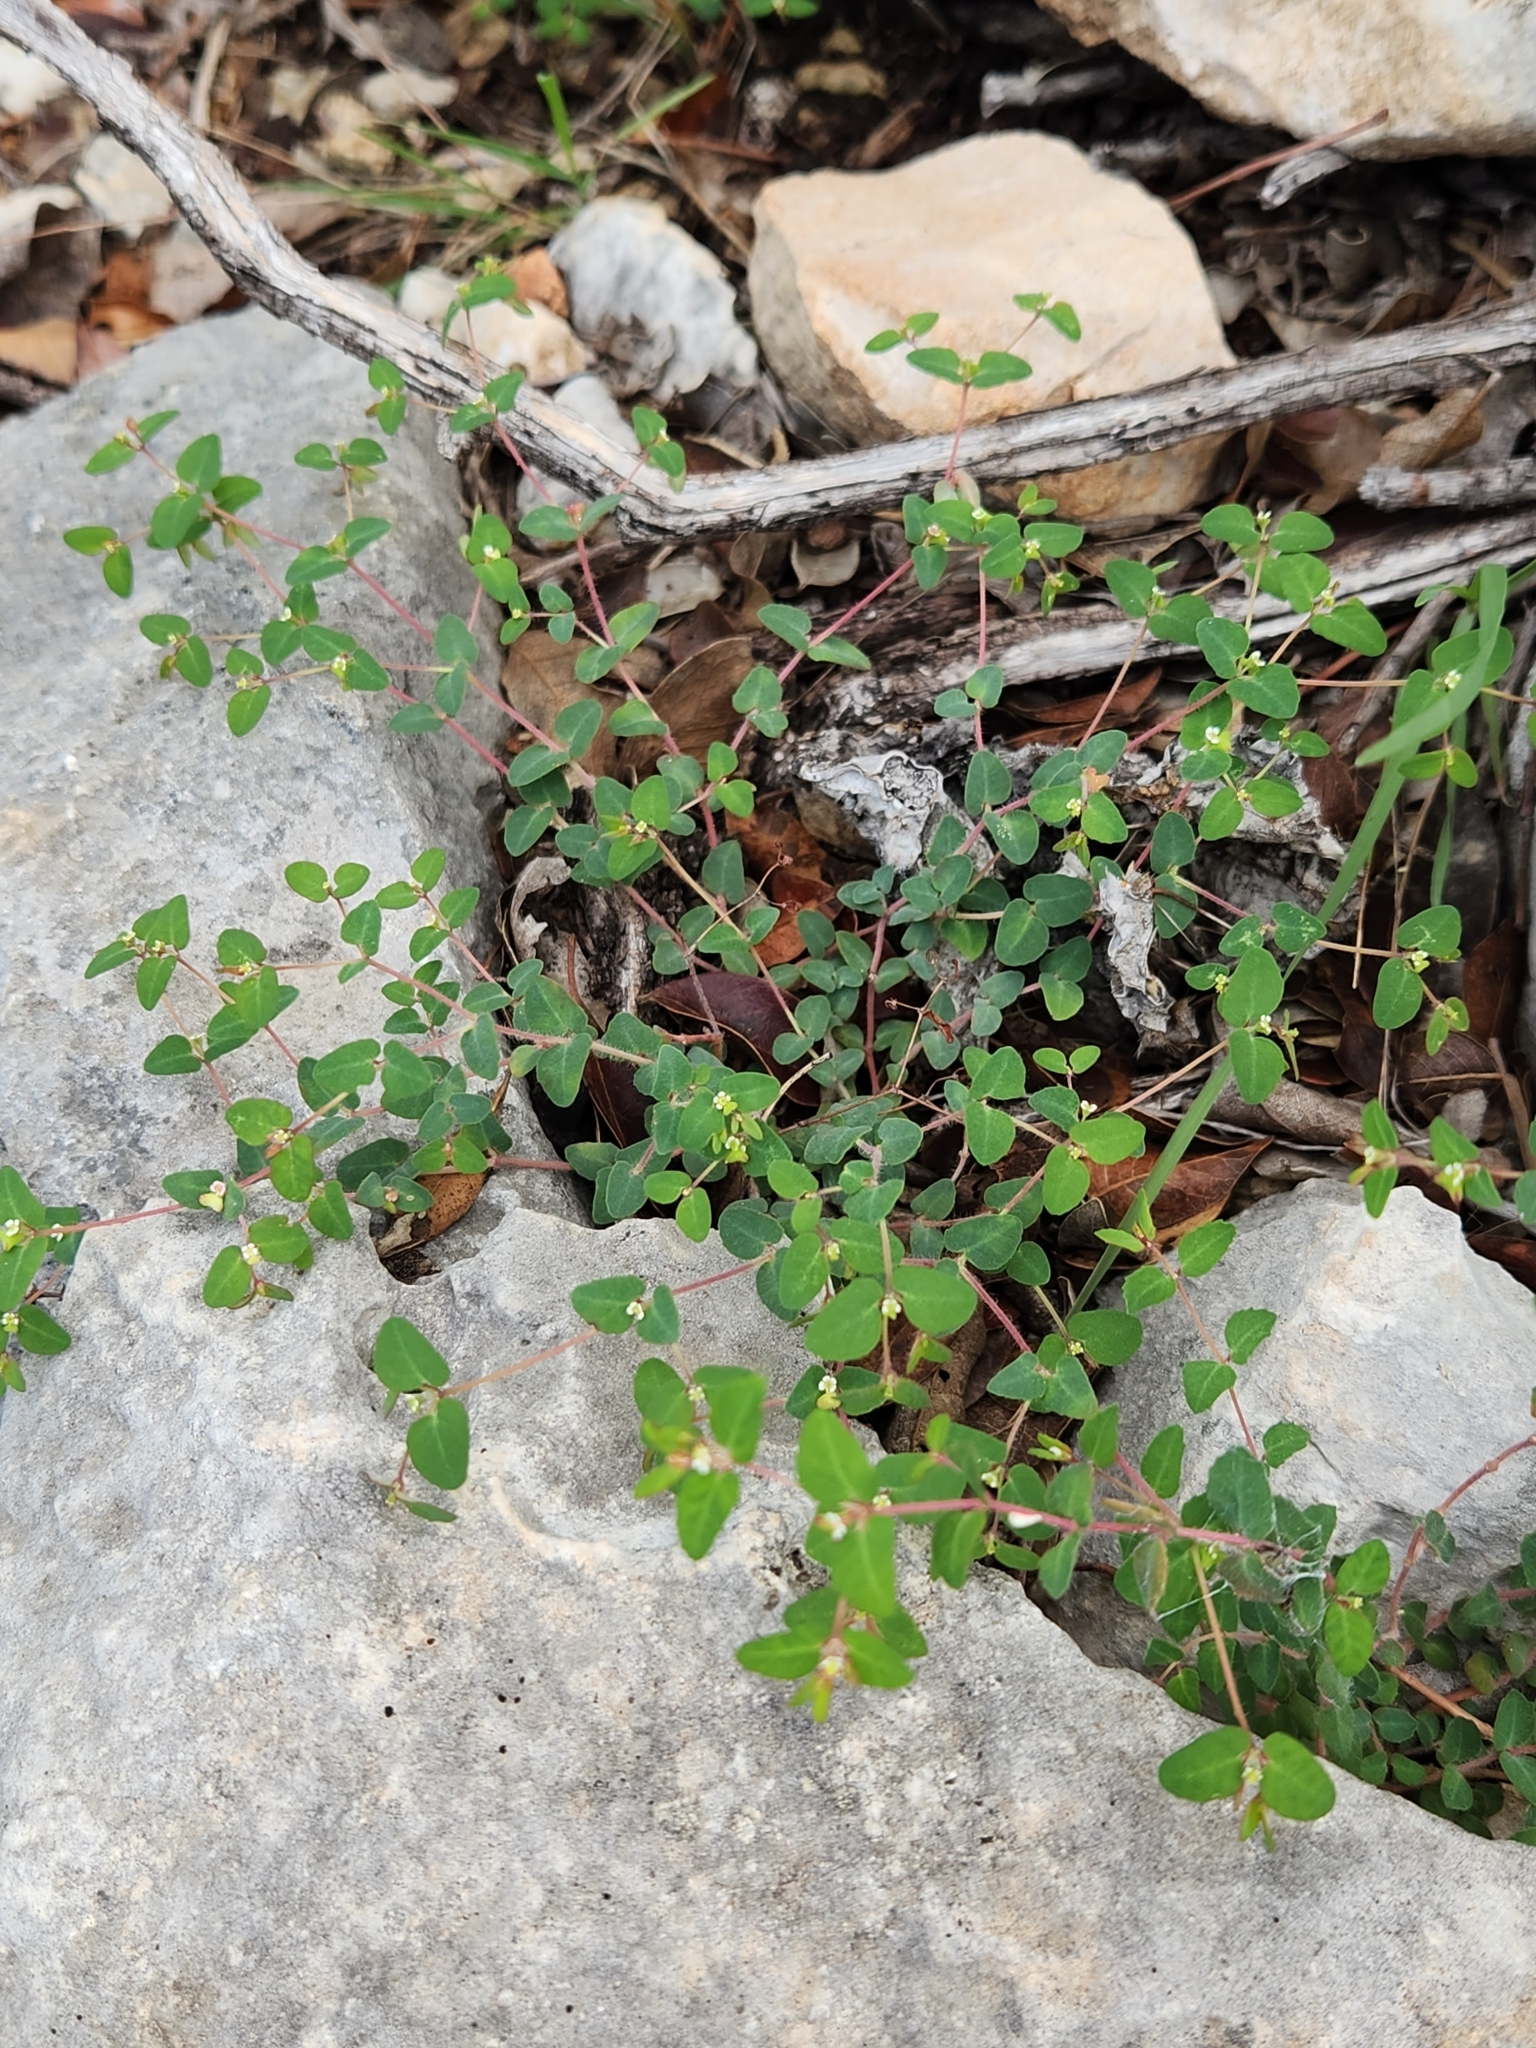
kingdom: Plantae
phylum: Tracheophyta
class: Magnoliopsida
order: Malpighiales
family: Euphorbiaceae
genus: Euphorbia
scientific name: Euphorbia villifera
